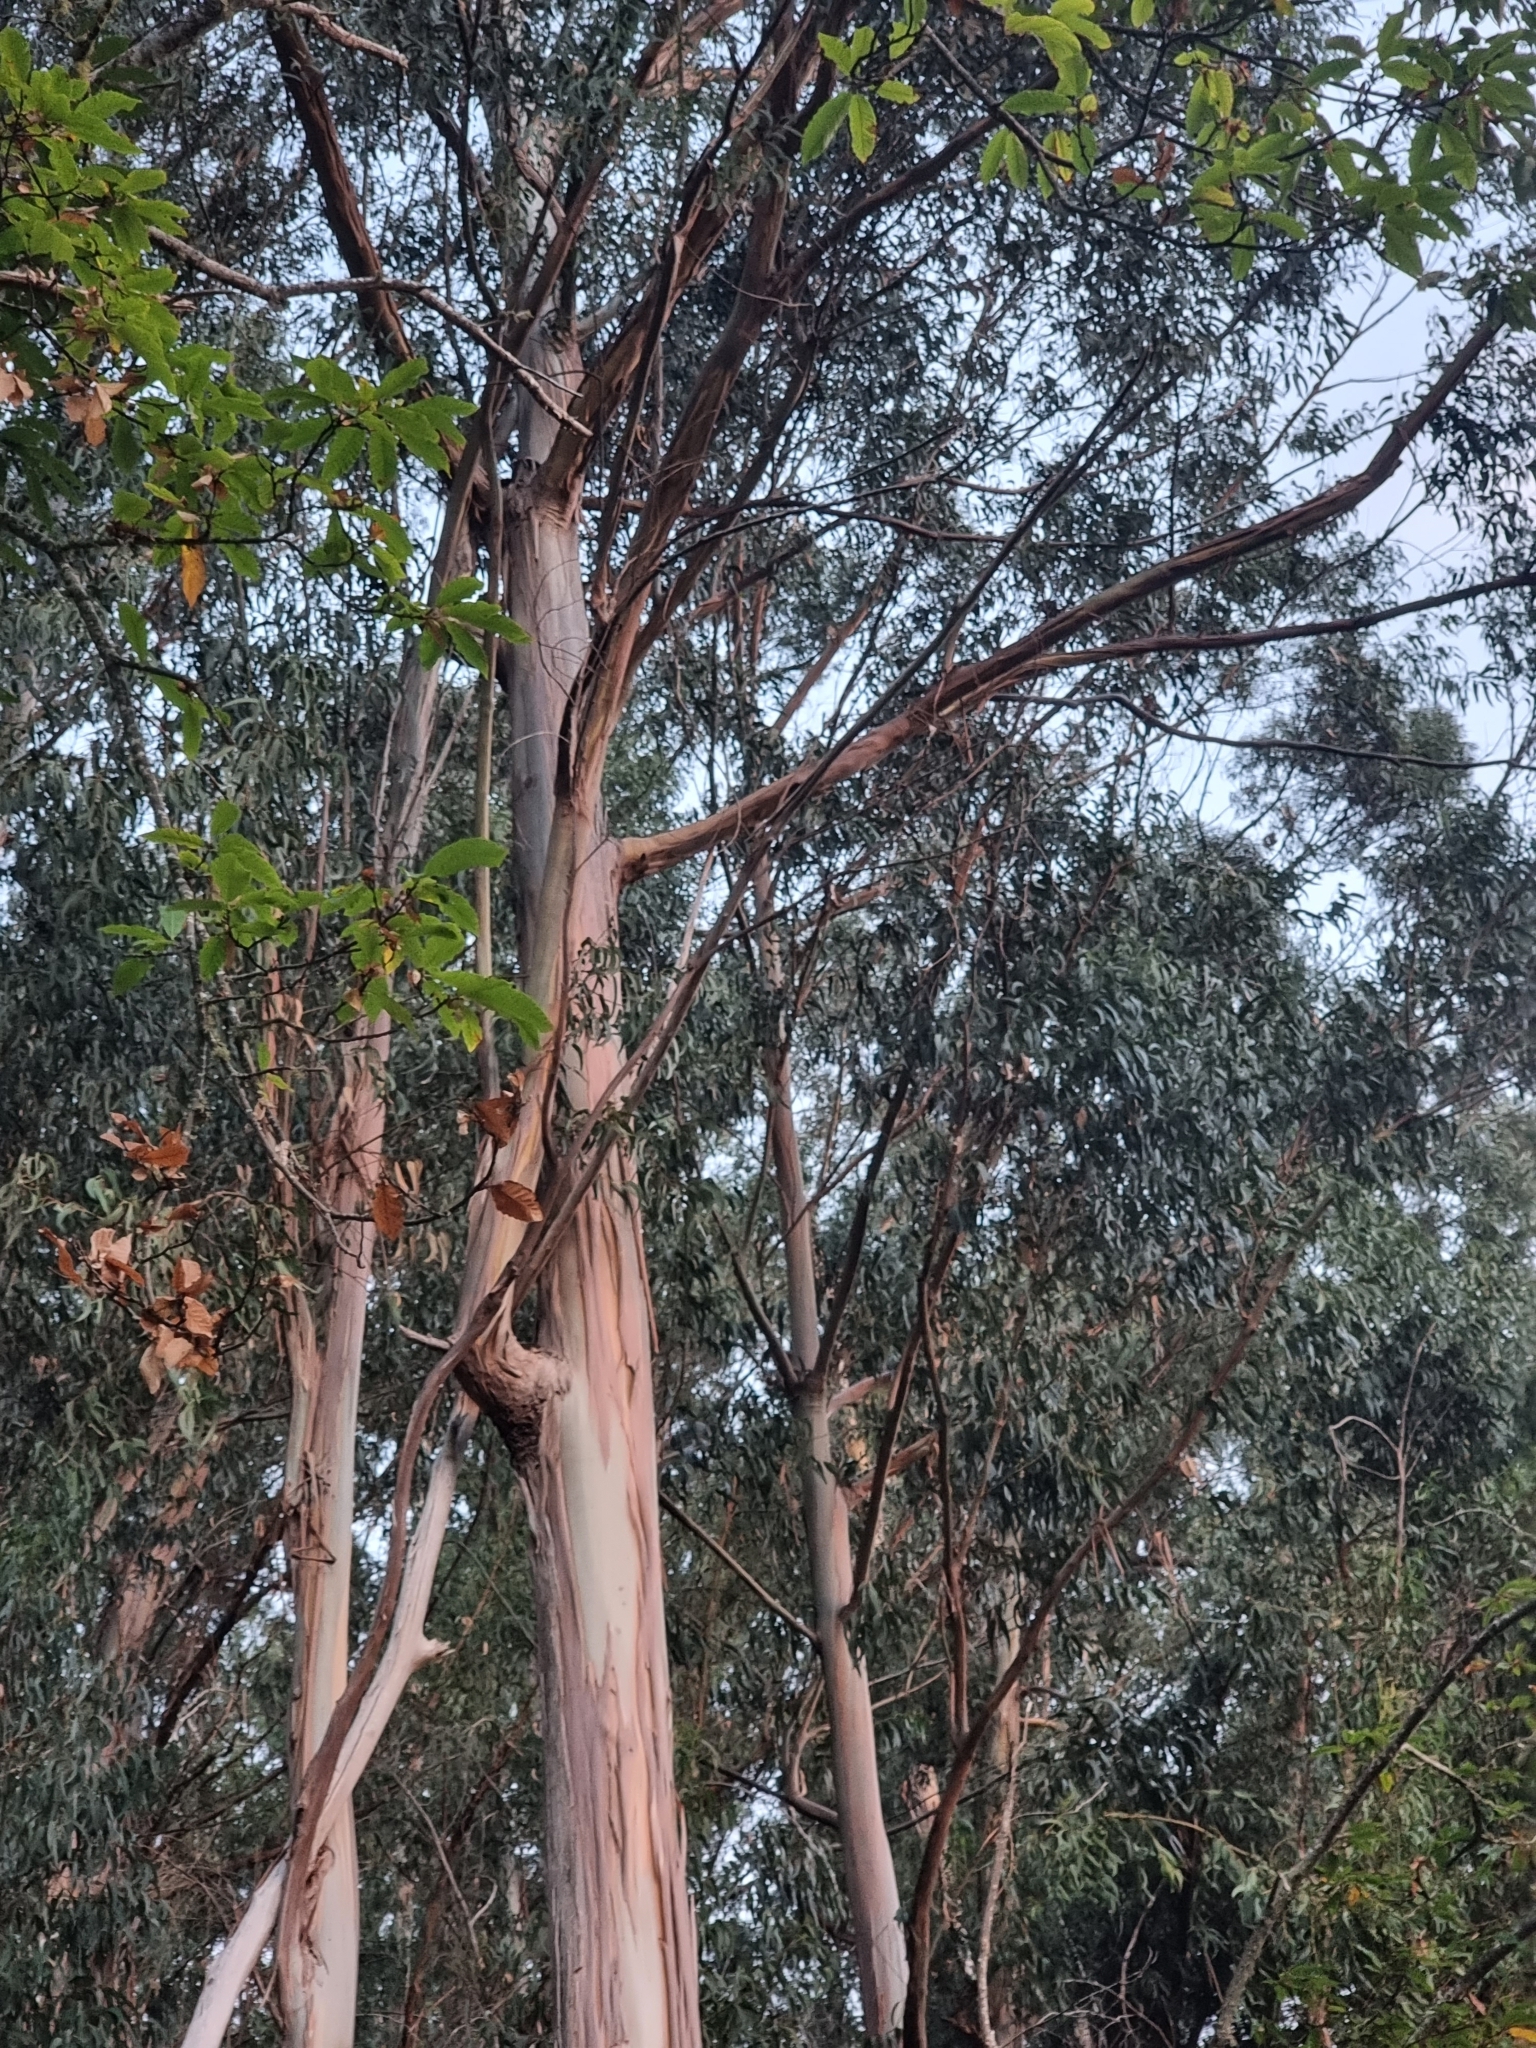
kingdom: Plantae
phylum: Tracheophyta
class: Magnoliopsida
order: Myrtales
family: Myrtaceae
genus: Eucalyptus
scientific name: Eucalyptus globulus
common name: Southern blue-gum
